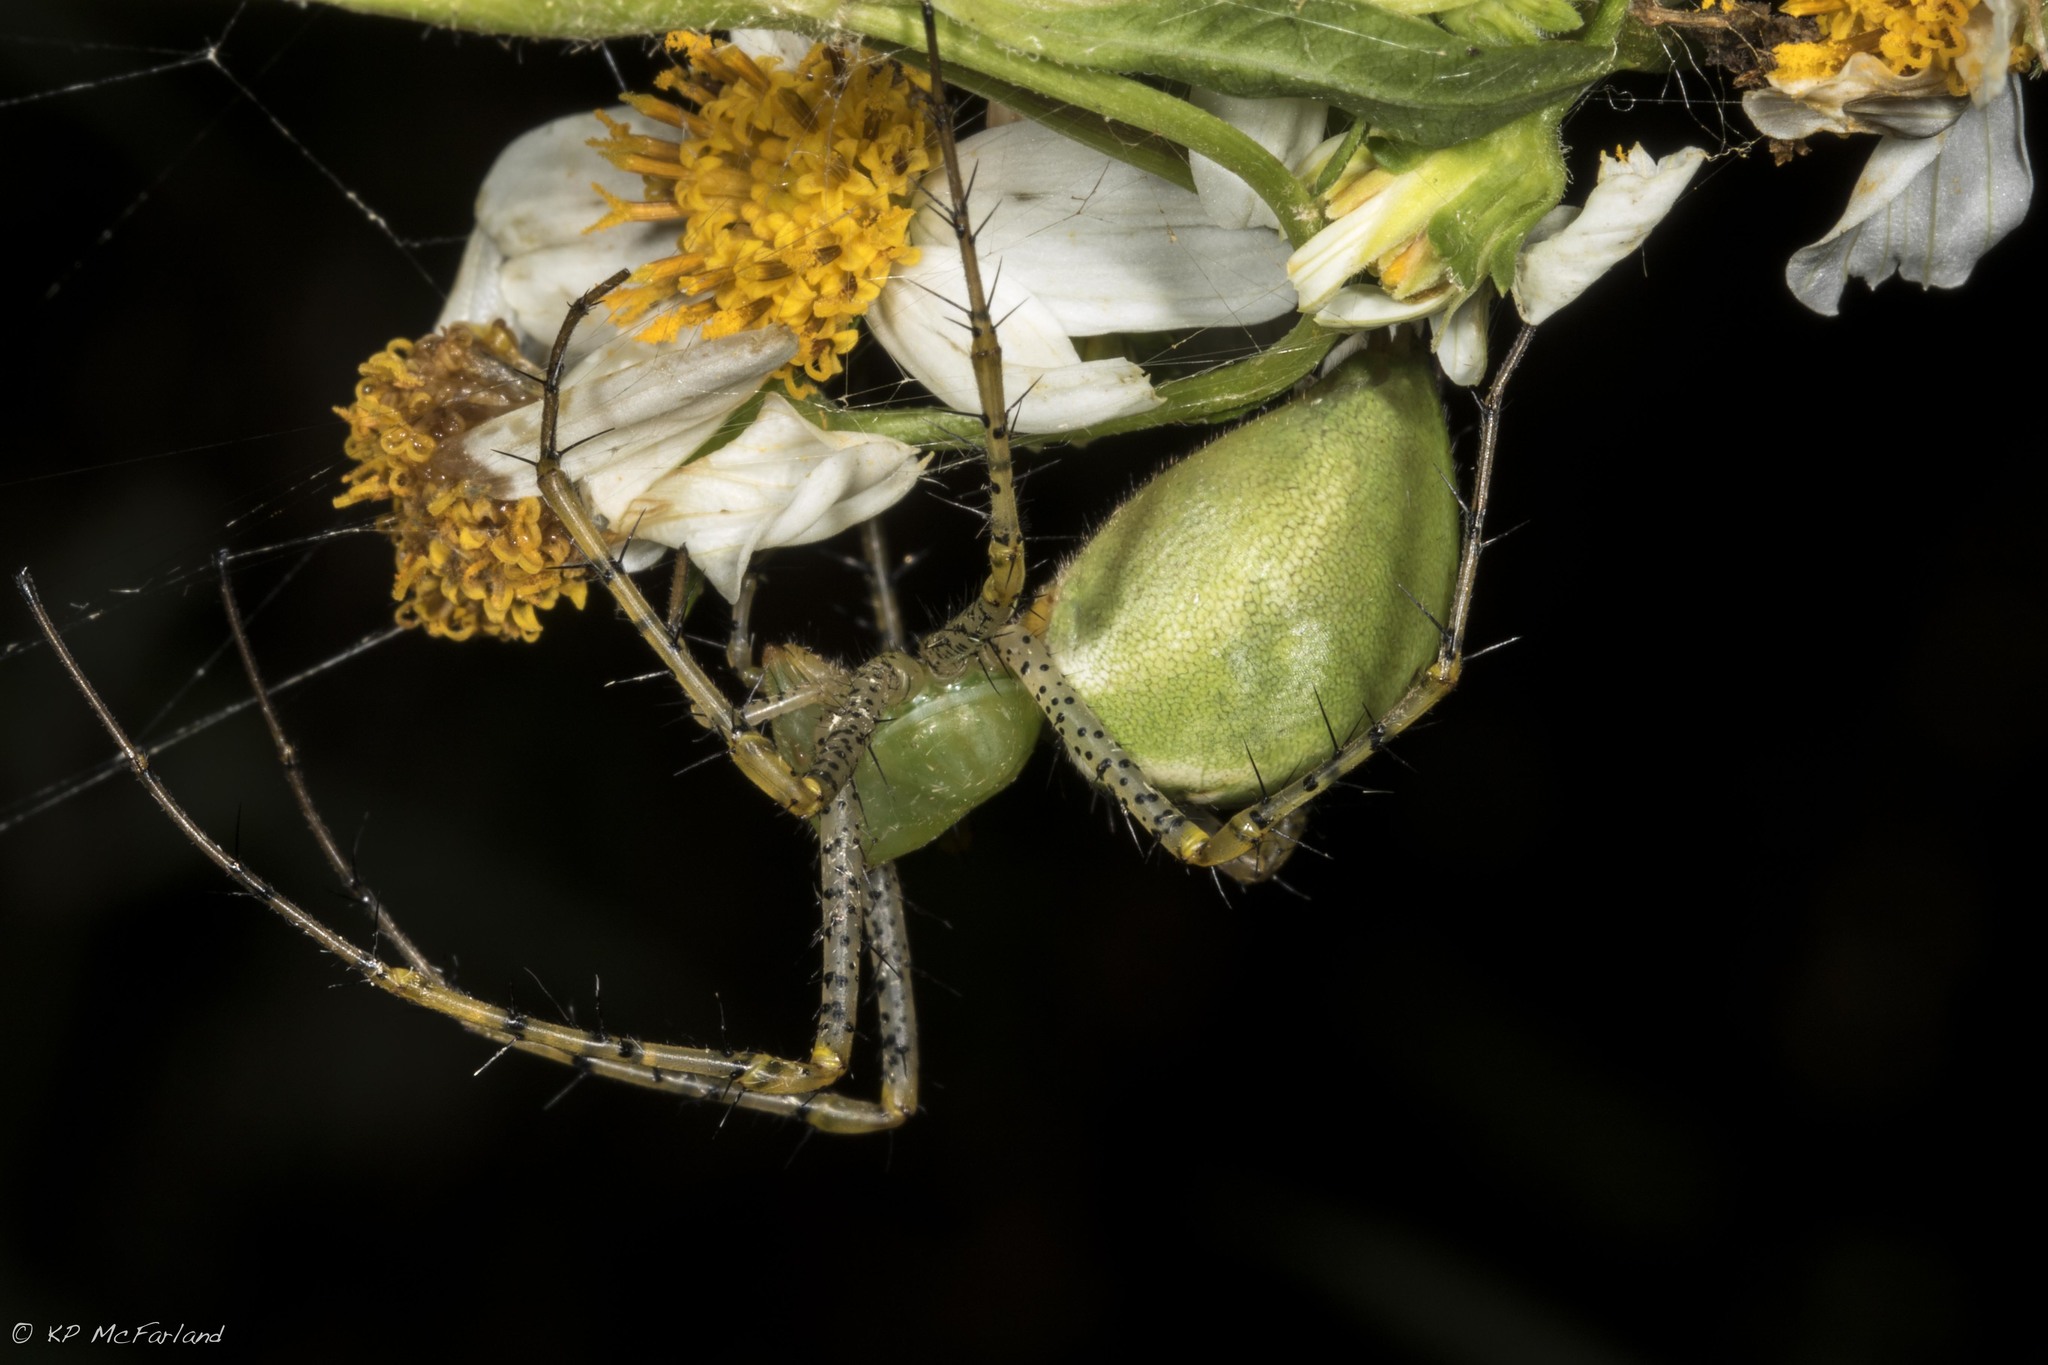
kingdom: Animalia
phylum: Arthropoda
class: Arachnida
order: Araneae
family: Oxyopidae
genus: Peucetia
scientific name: Peucetia viridans
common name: Lynx spiders
